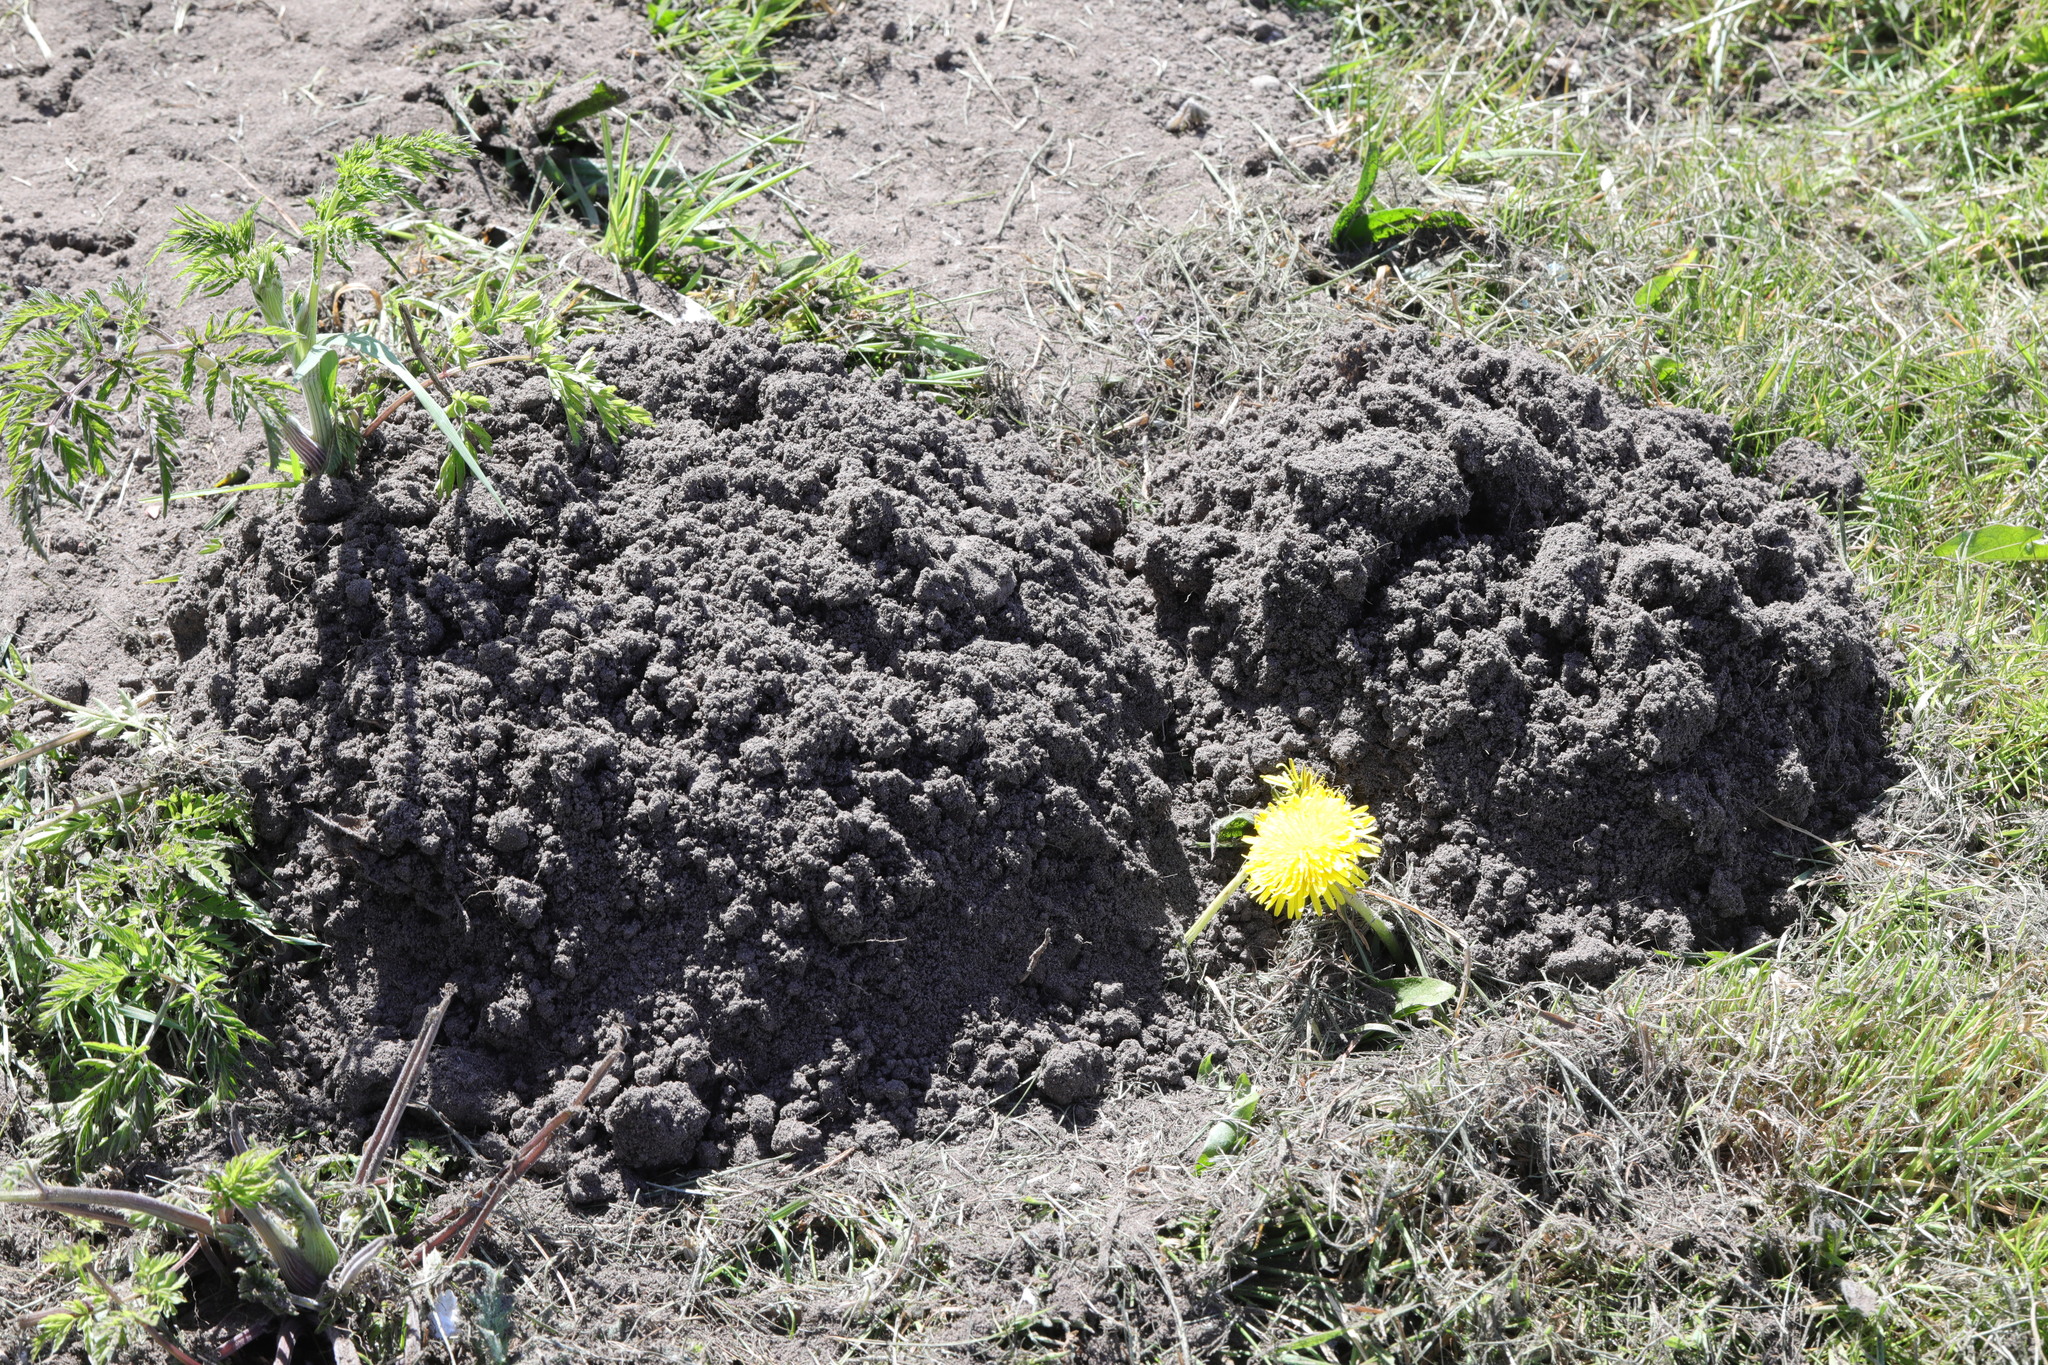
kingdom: Animalia
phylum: Chordata
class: Mammalia
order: Soricomorpha
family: Talpidae
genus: Talpa
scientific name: Talpa europaea
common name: European mole
